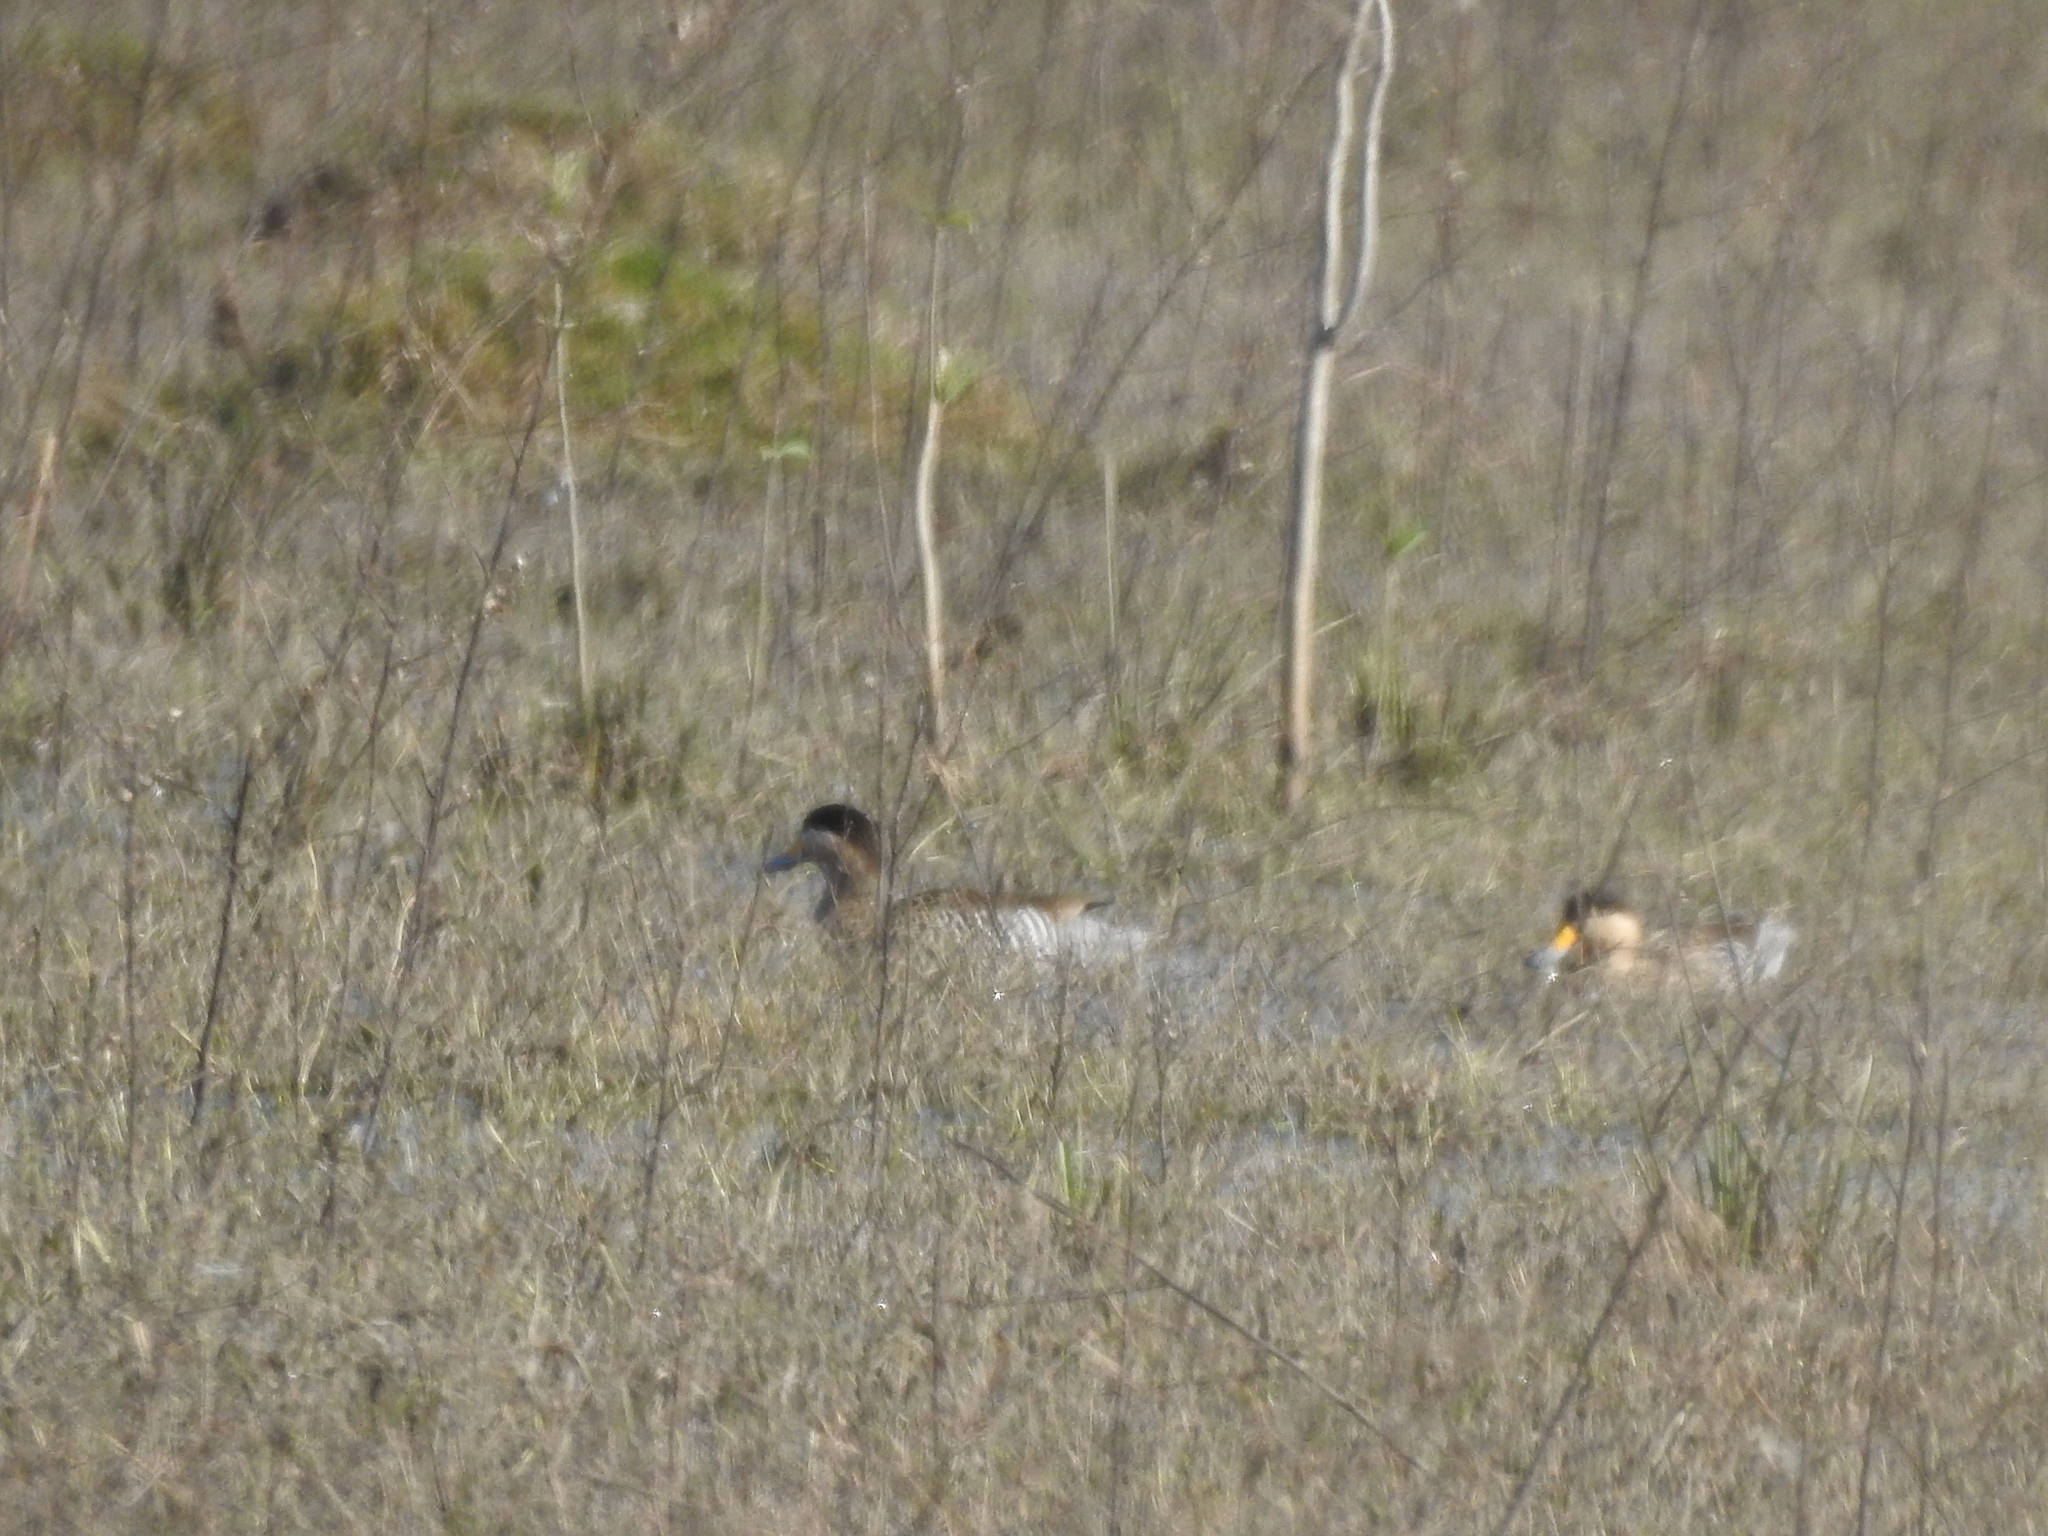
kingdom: Animalia
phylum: Chordata
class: Aves
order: Anseriformes
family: Anatidae
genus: Spatula
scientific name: Spatula versicolor
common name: Silver teal
